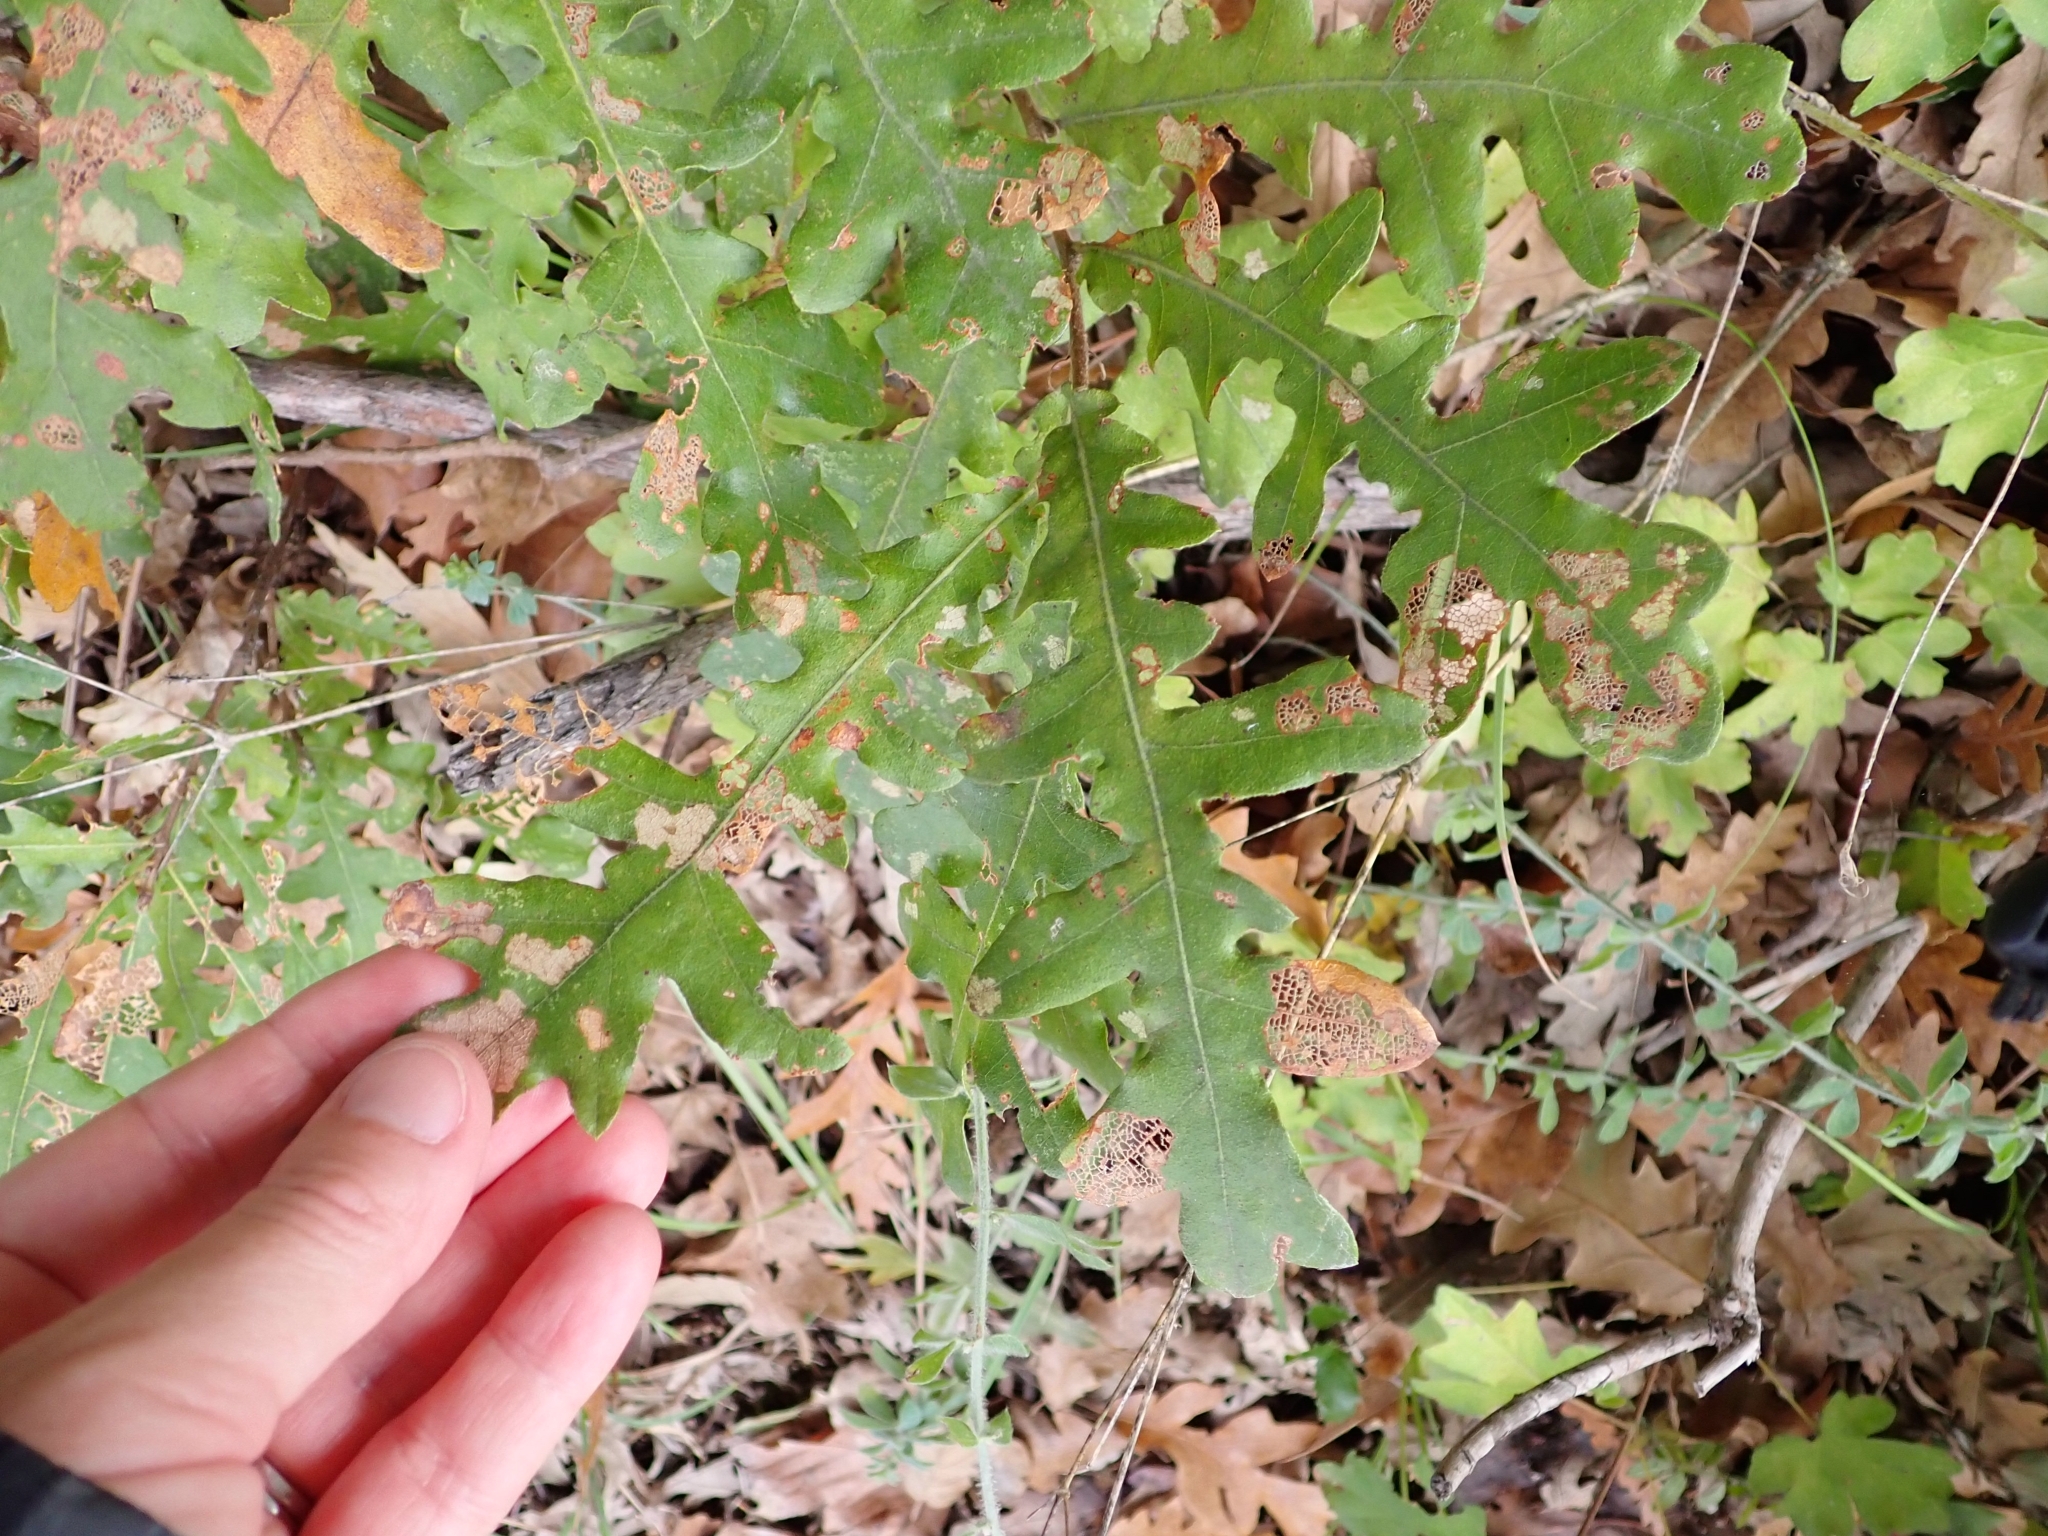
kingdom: Plantae
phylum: Tracheophyta
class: Magnoliopsida
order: Fagales
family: Fagaceae
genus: Quercus
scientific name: Quercus cerris
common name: Turkey oak
